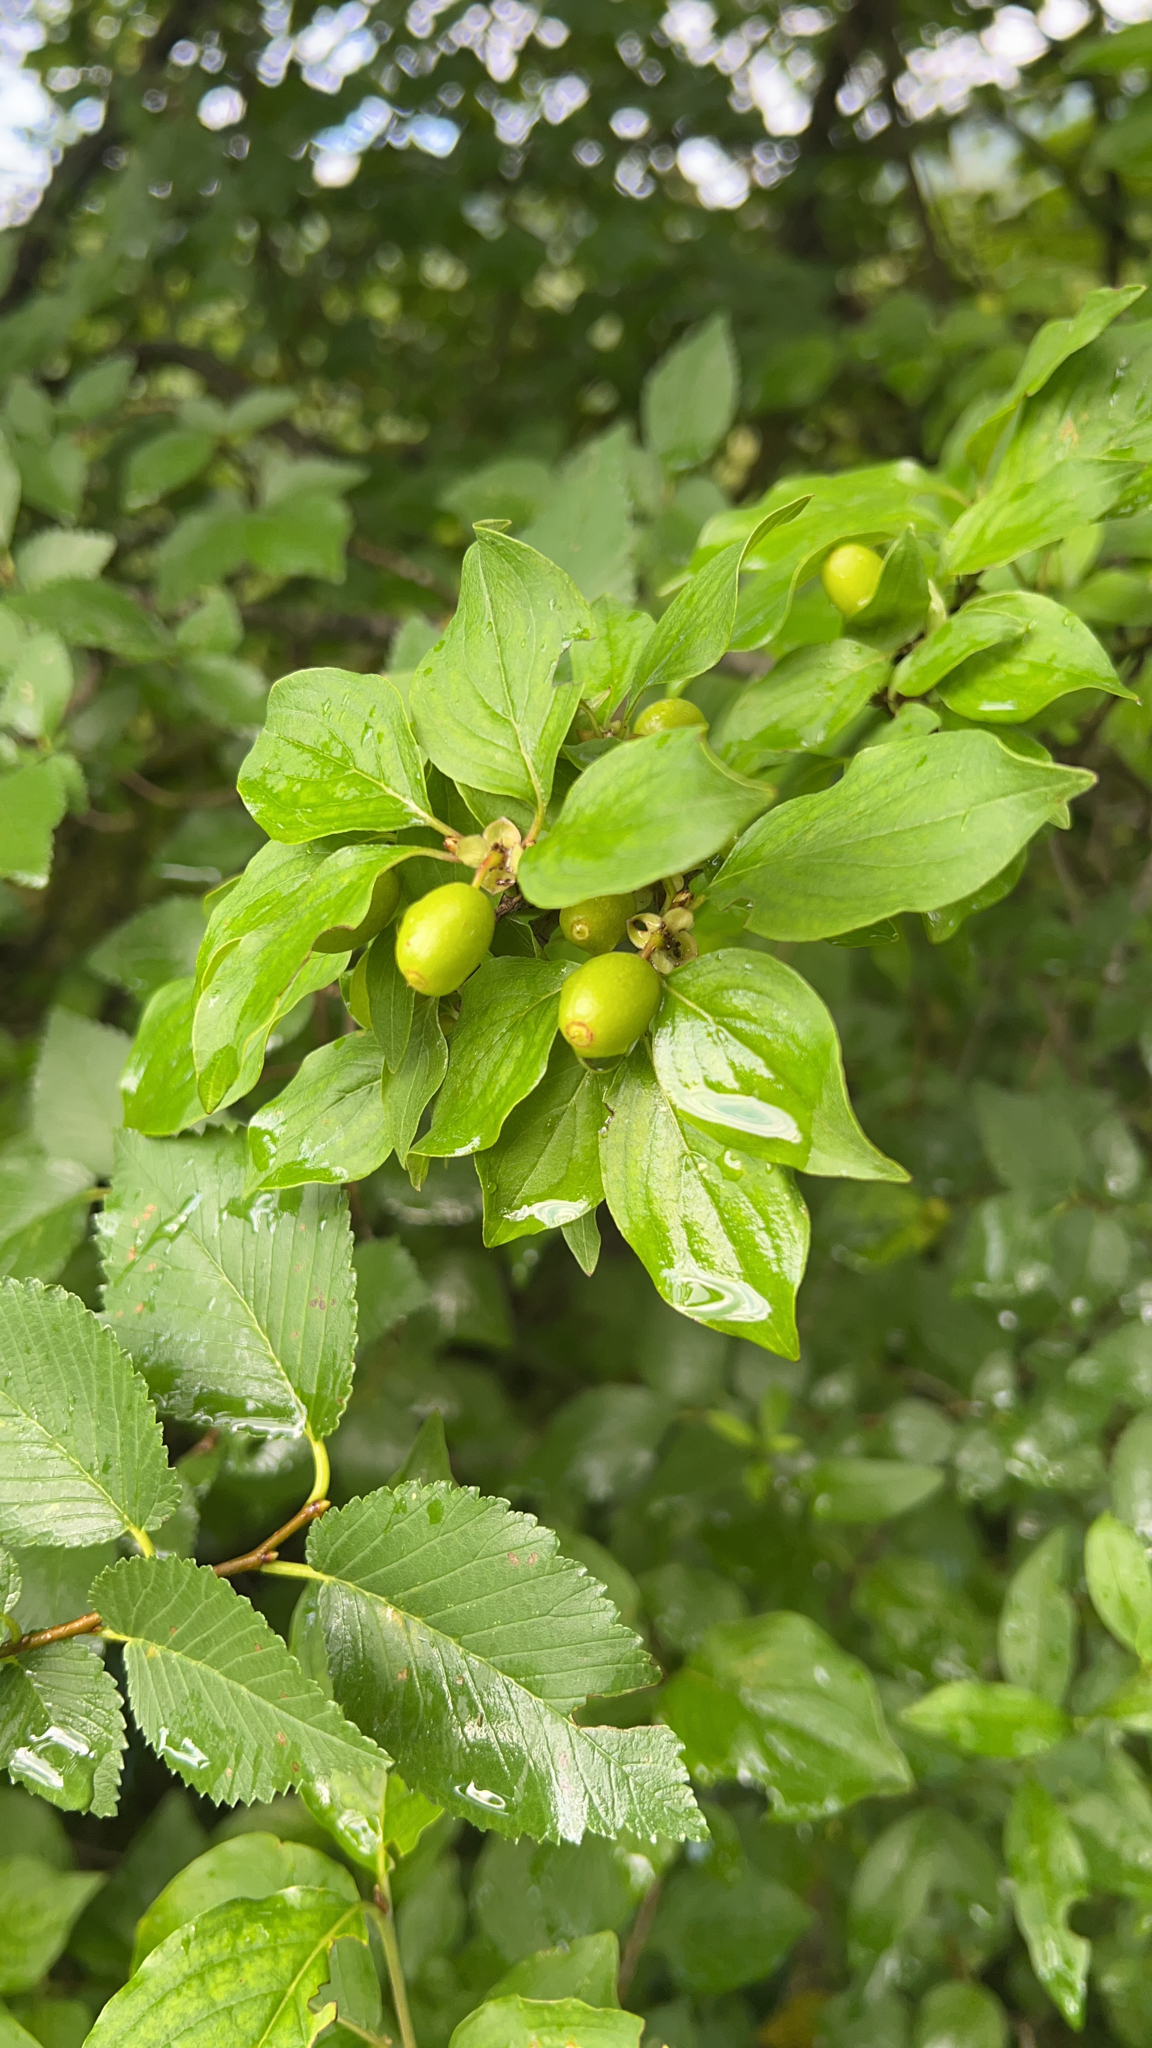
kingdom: Plantae
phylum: Tracheophyta
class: Magnoliopsida
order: Cornales
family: Cornaceae
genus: Cornus
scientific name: Cornus mas
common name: Cornelian-cherry
